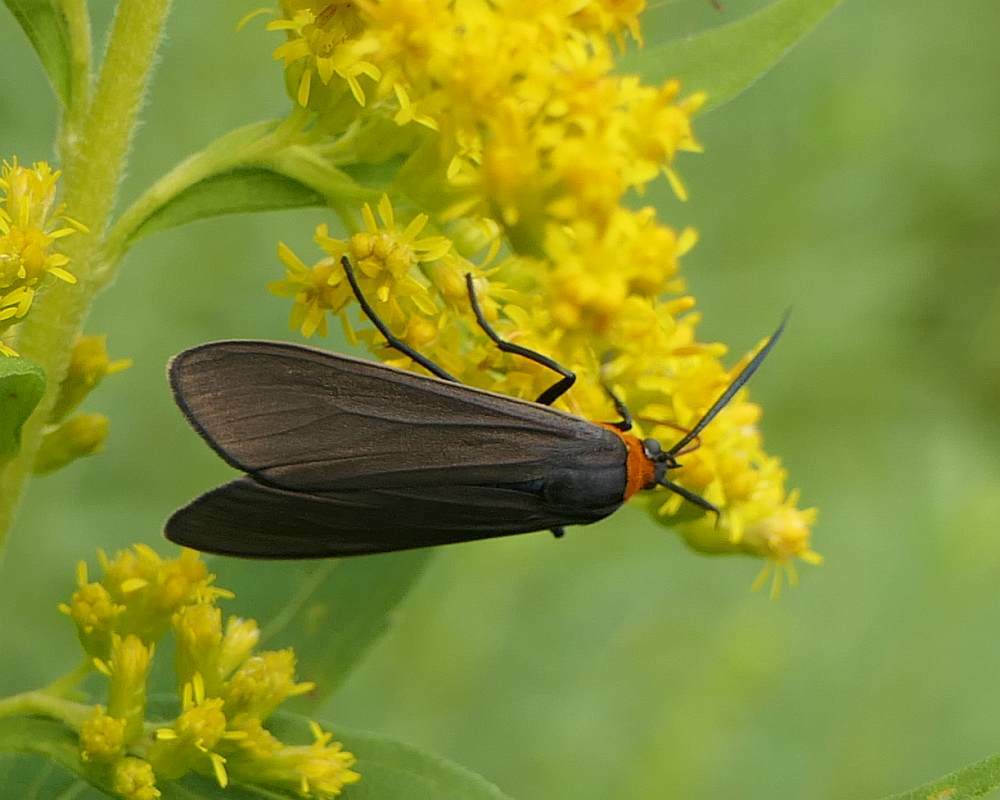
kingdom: Animalia
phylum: Arthropoda
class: Insecta
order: Lepidoptera
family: Erebidae
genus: Cisseps
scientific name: Cisseps fulvicollis
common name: Yellow-collared scape moth
